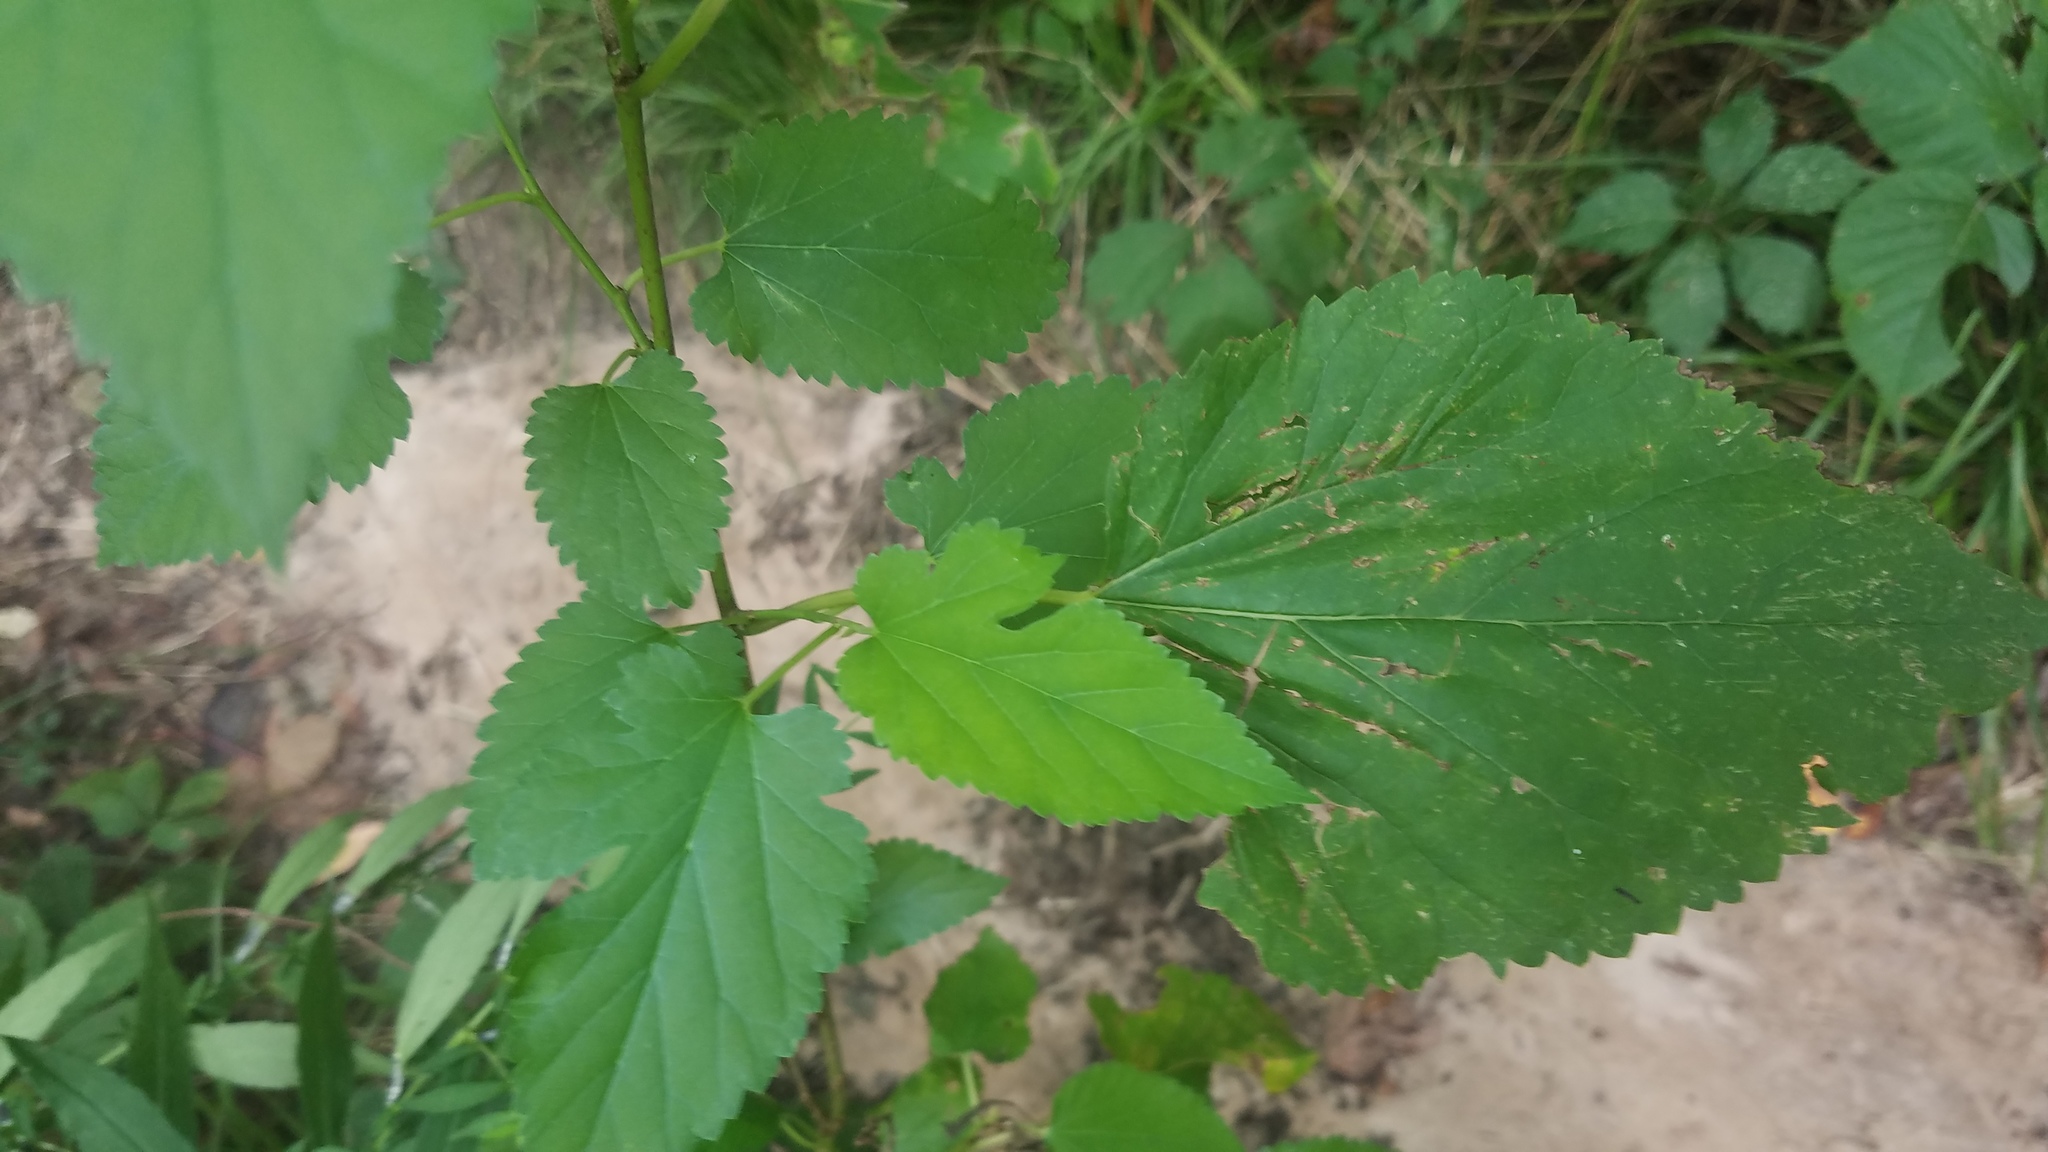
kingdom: Plantae
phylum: Tracheophyta
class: Magnoliopsida
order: Rosales
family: Moraceae
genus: Morus
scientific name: Morus alba
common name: White mulberry
